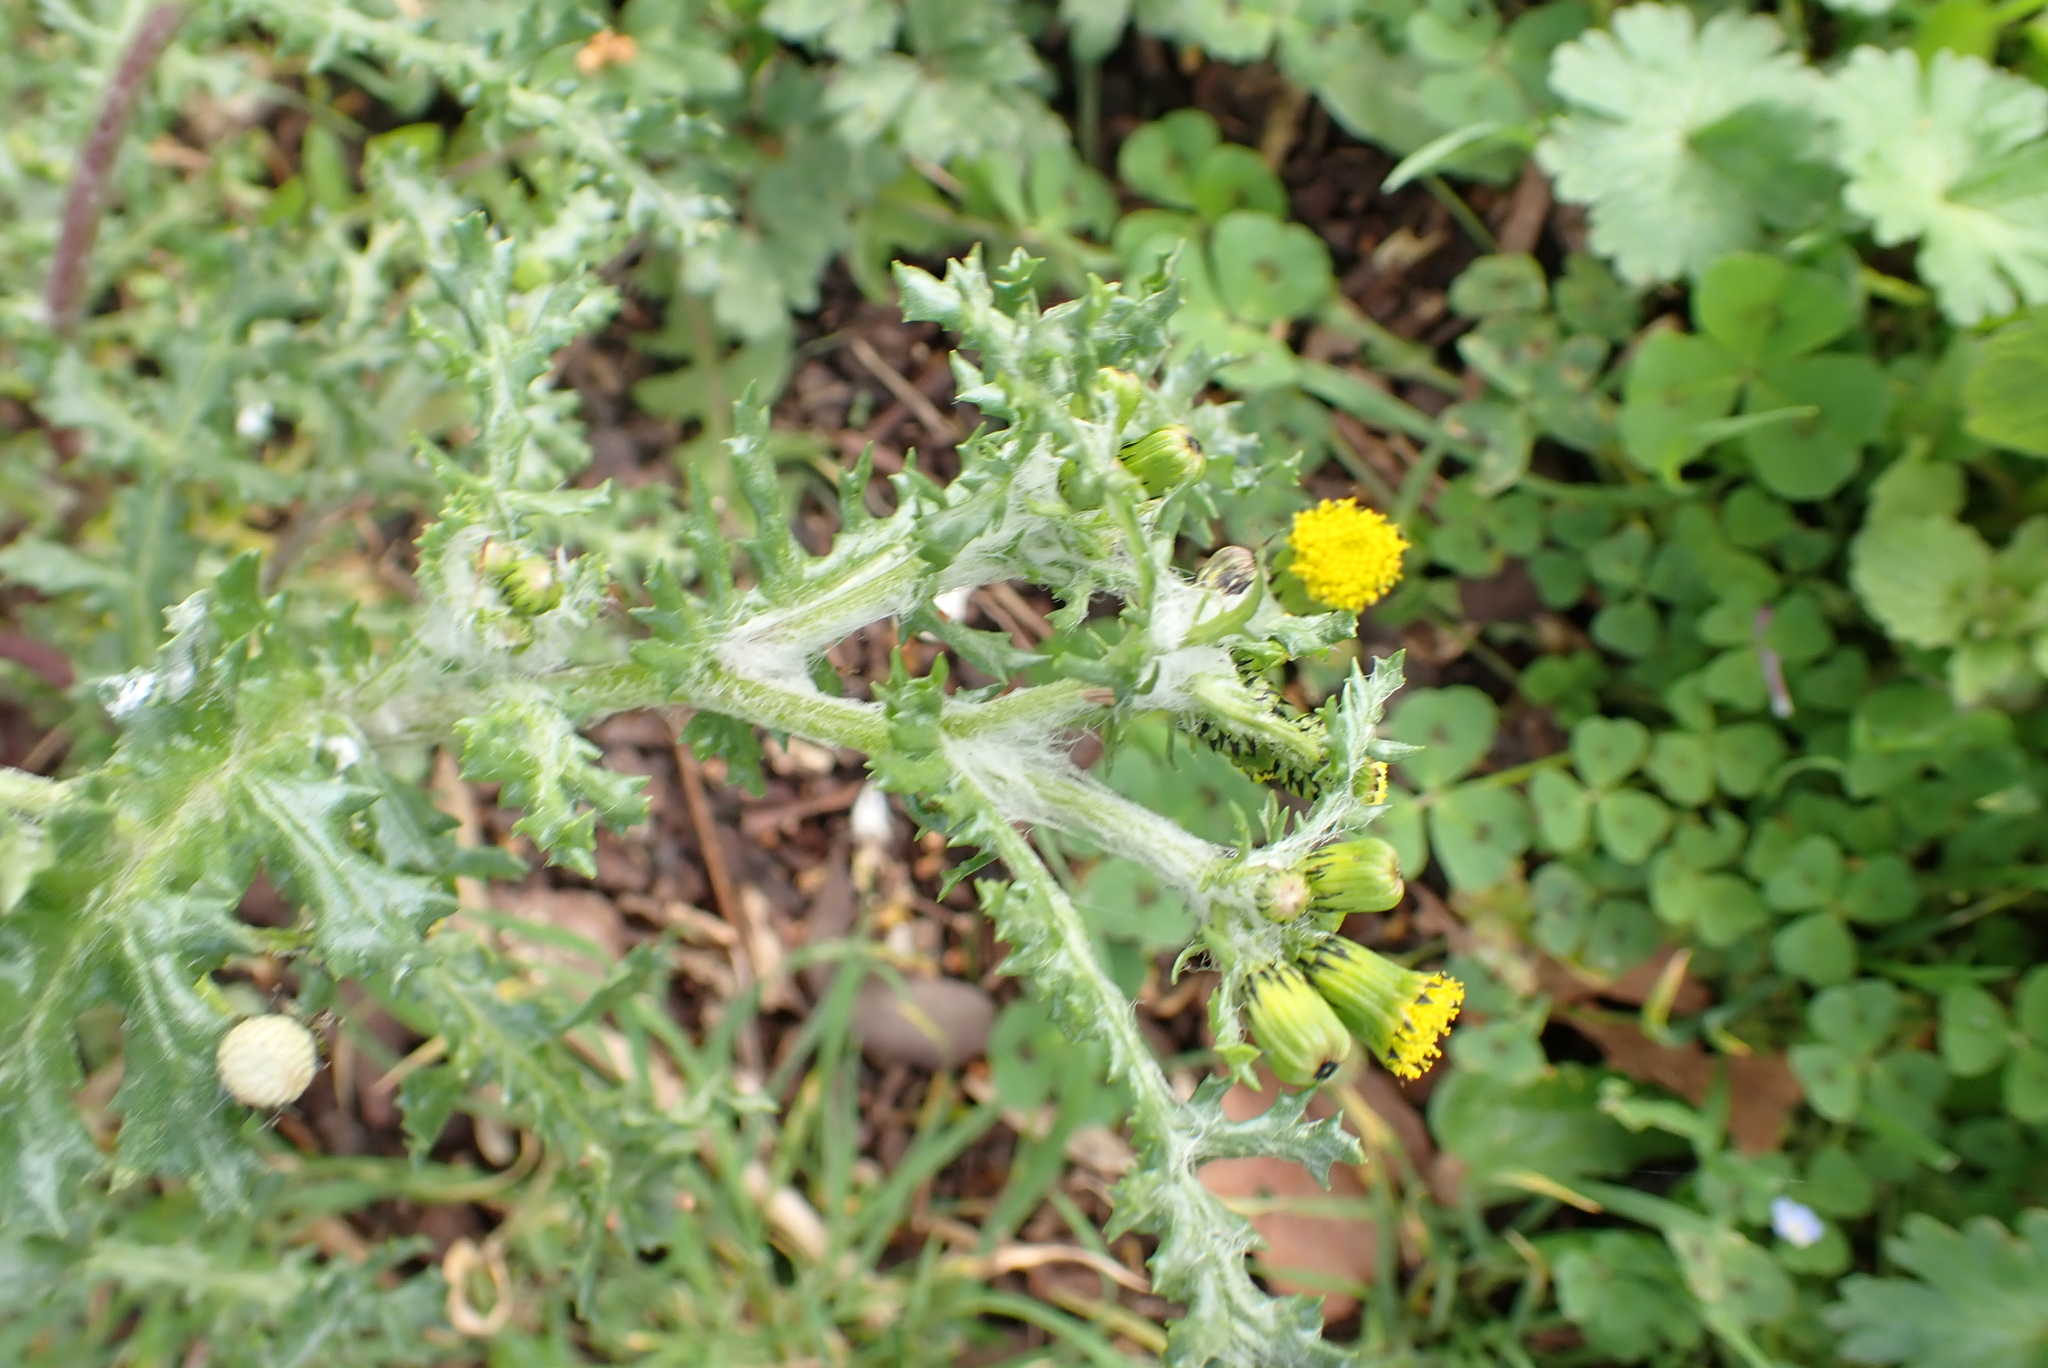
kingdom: Plantae
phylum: Tracheophyta
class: Magnoliopsida
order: Asterales
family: Asteraceae
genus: Senecio
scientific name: Senecio vulgaris
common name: Old-man-in-the-spring
